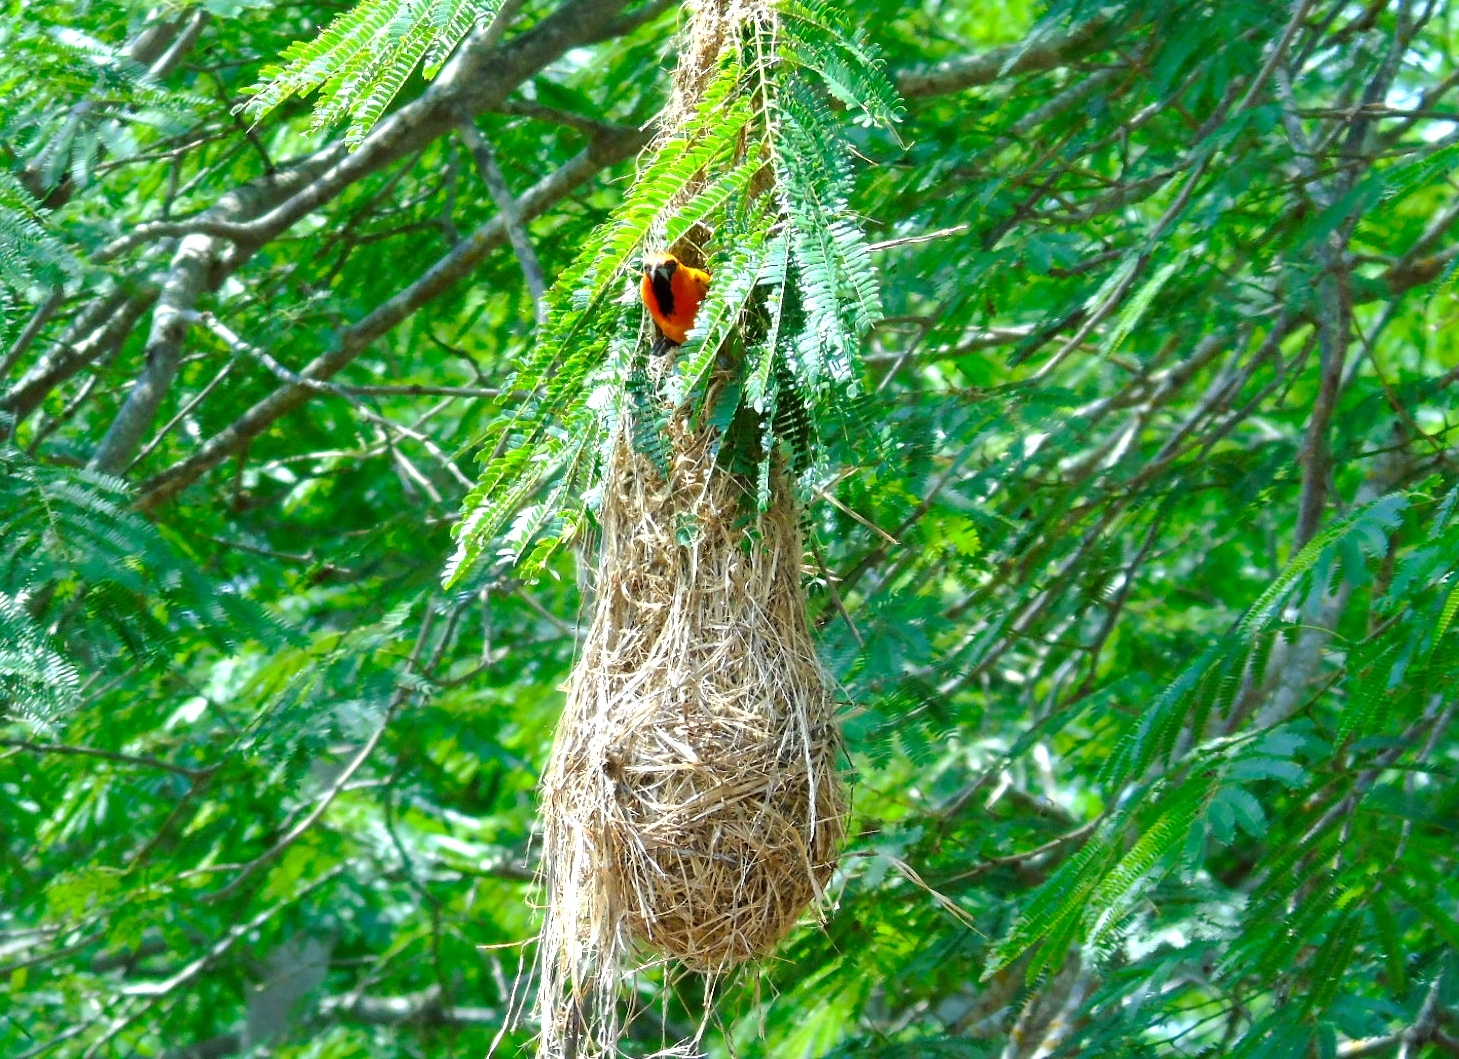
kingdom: Animalia
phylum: Chordata
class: Aves
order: Passeriformes
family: Icteridae
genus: Icterus
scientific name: Icterus pustulatus
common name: Streak-backed oriole
